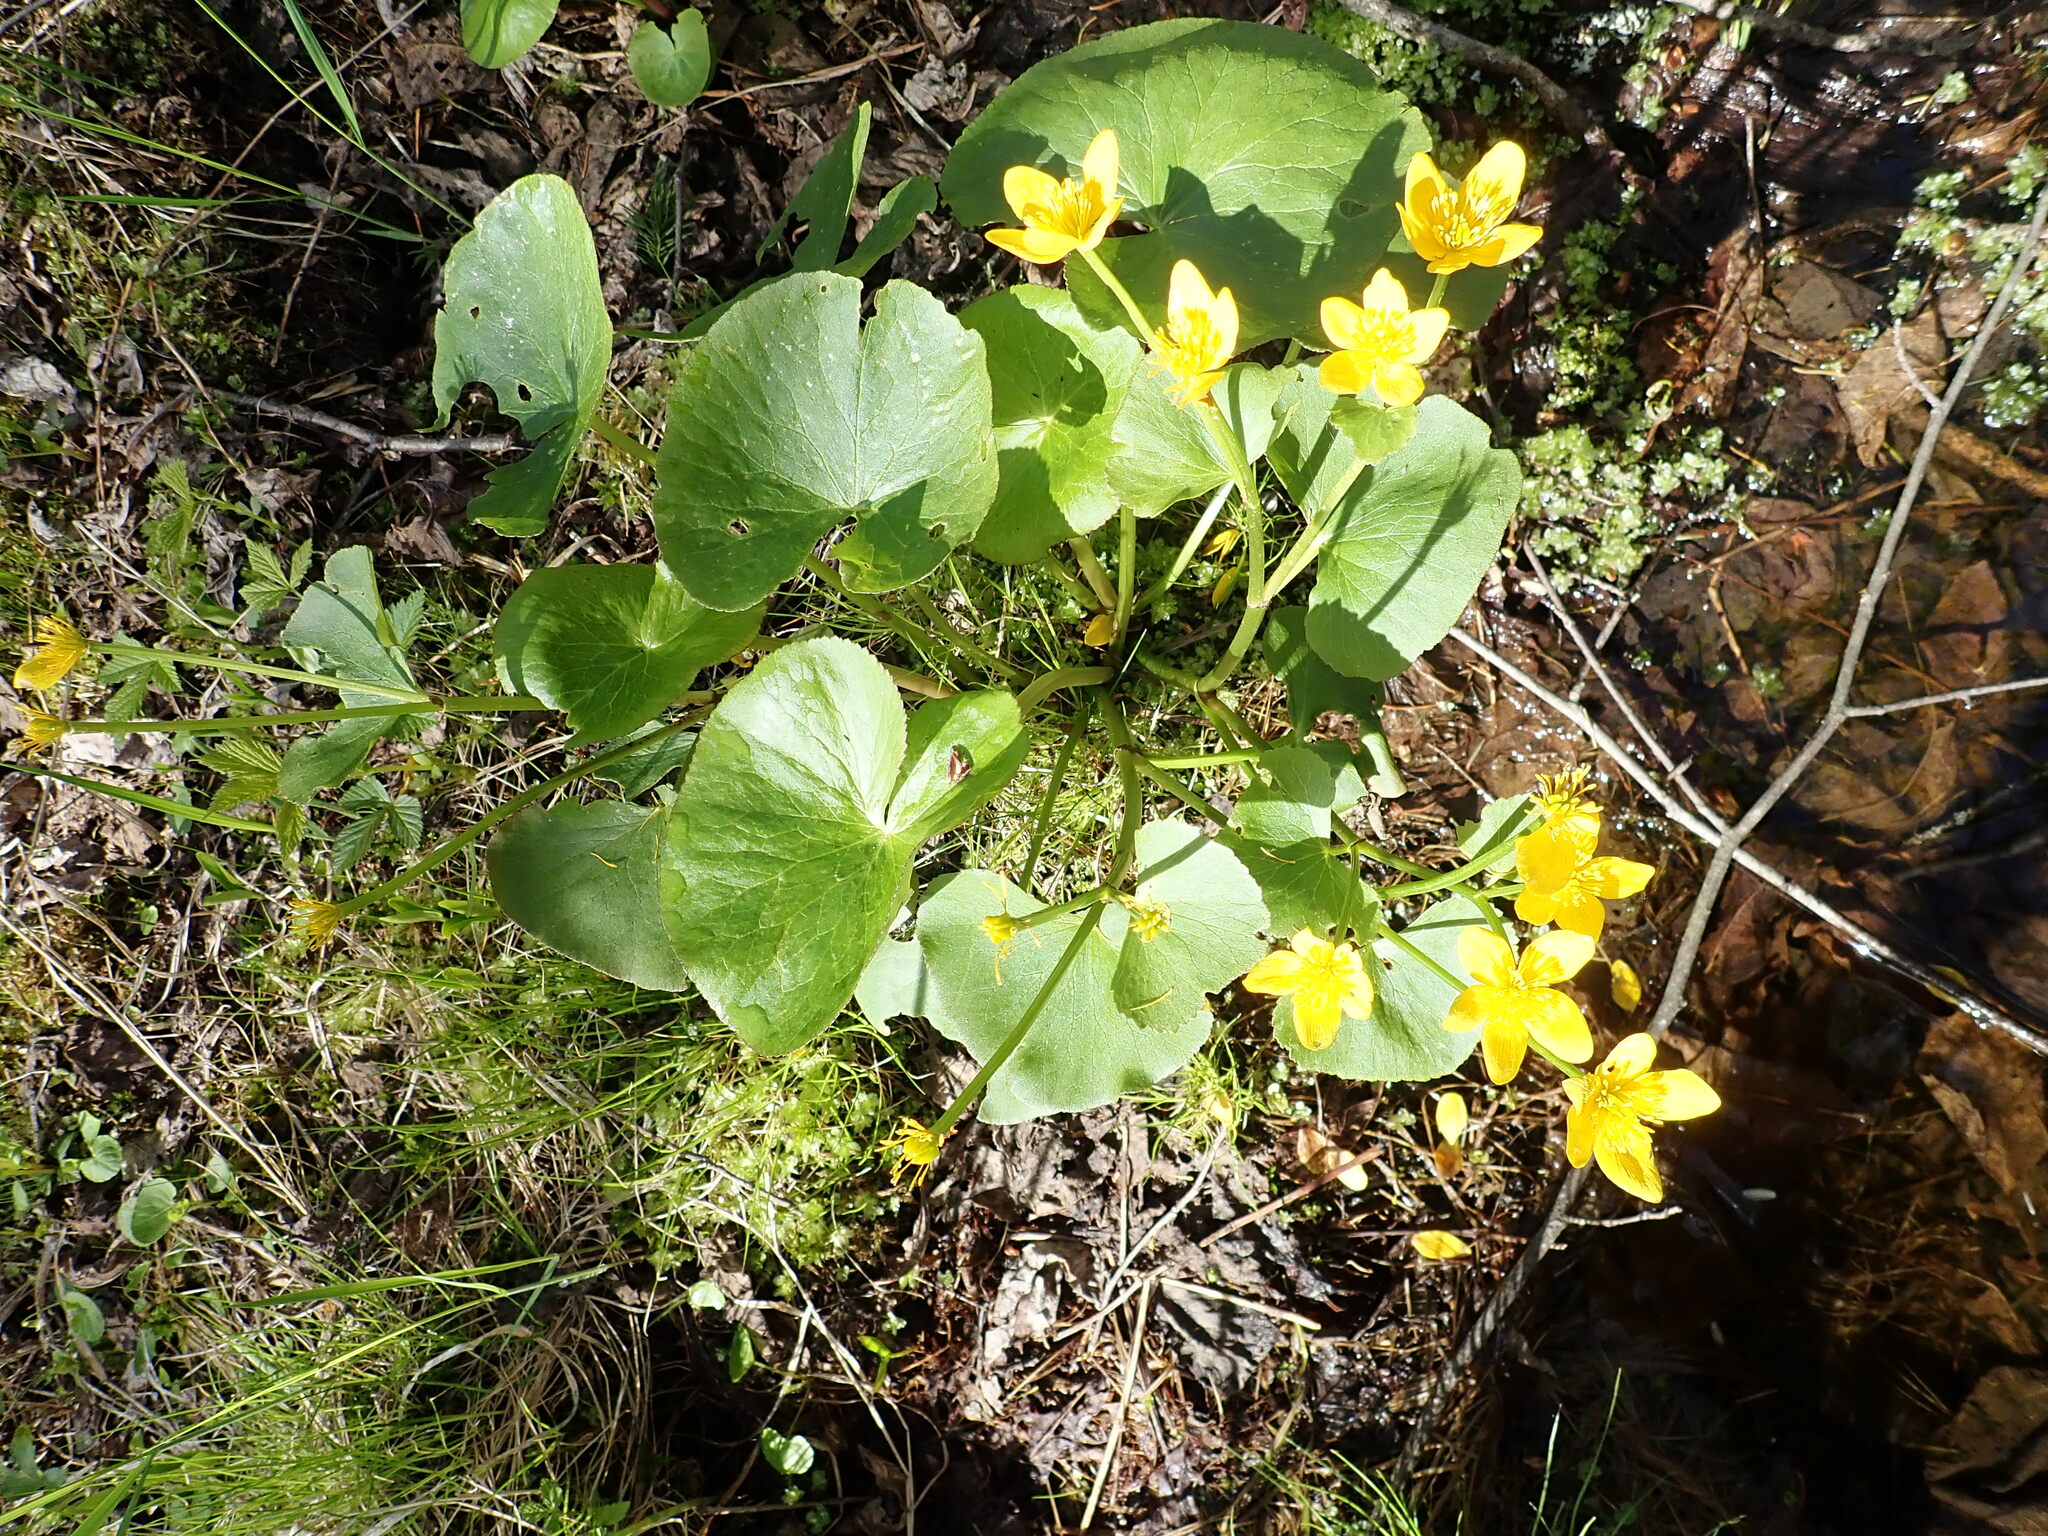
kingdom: Plantae
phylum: Tracheophyta
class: Magnoliopsida
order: Ranunculales
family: Ranunculaceae
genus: Caltha
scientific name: Caltha palustris
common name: Marsh marigold
